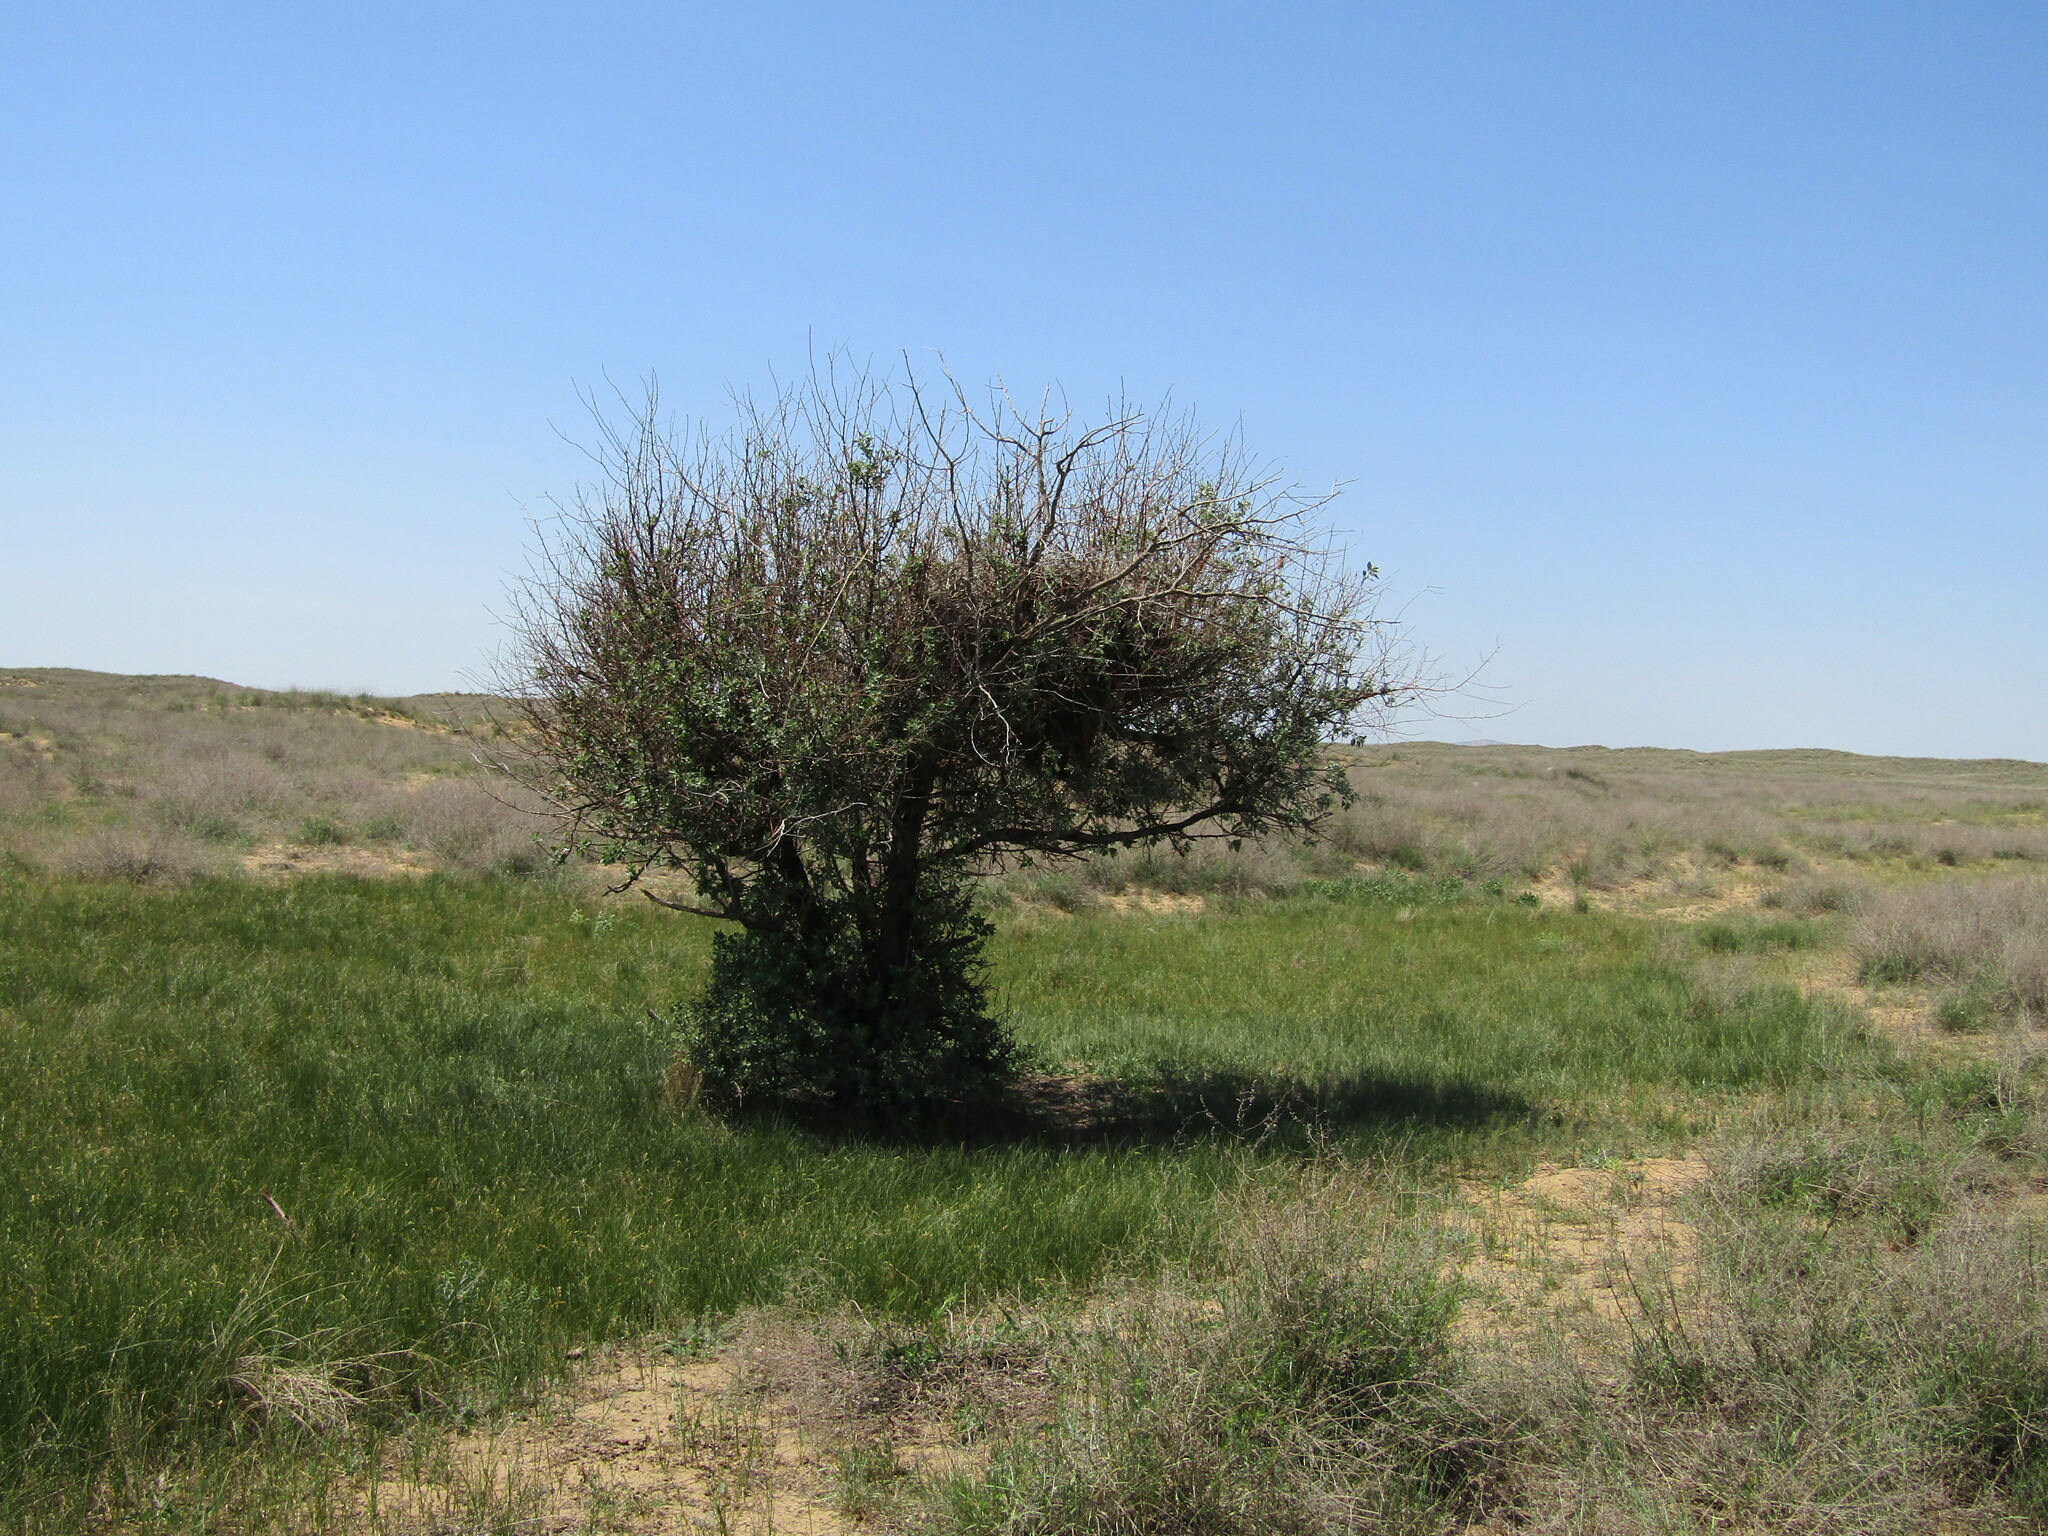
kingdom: Animalia
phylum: Chordata
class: Aves
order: Accipitriformes
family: Accipitridae
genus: Buteo
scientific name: Buteo rufinus
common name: Long-legged buzzard
